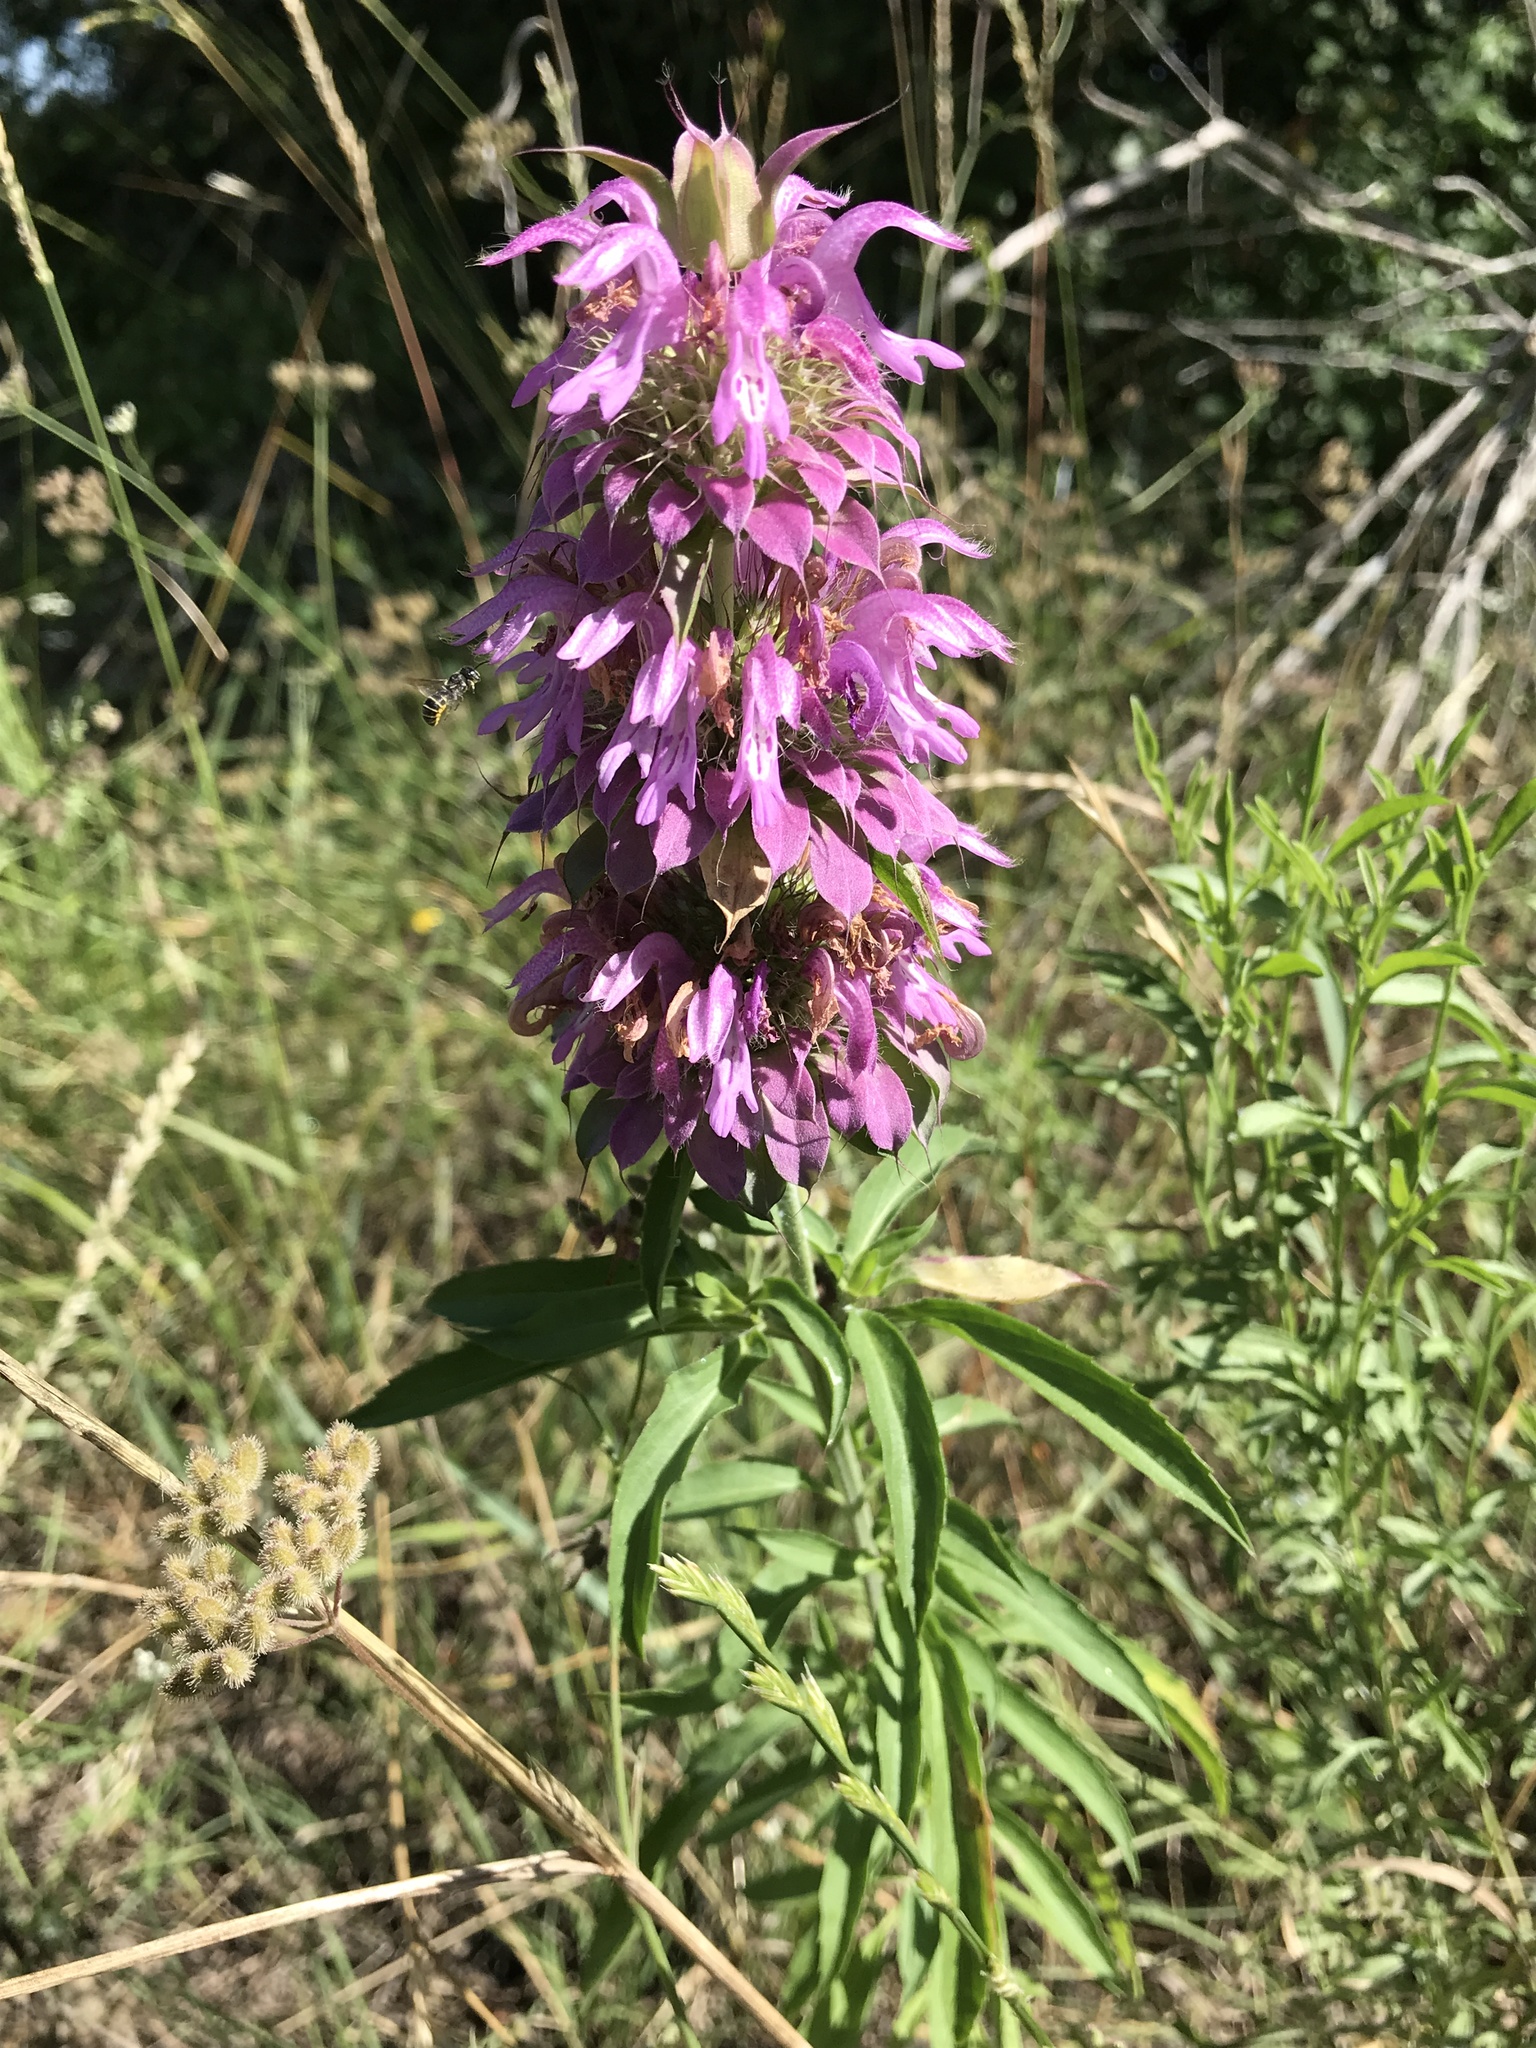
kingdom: Plantae
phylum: Tracheophyta
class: Magnoliopsida
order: Lamiales
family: Lamiaceae
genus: Monarda
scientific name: Monarda citriodora
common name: Lemon beebalm
